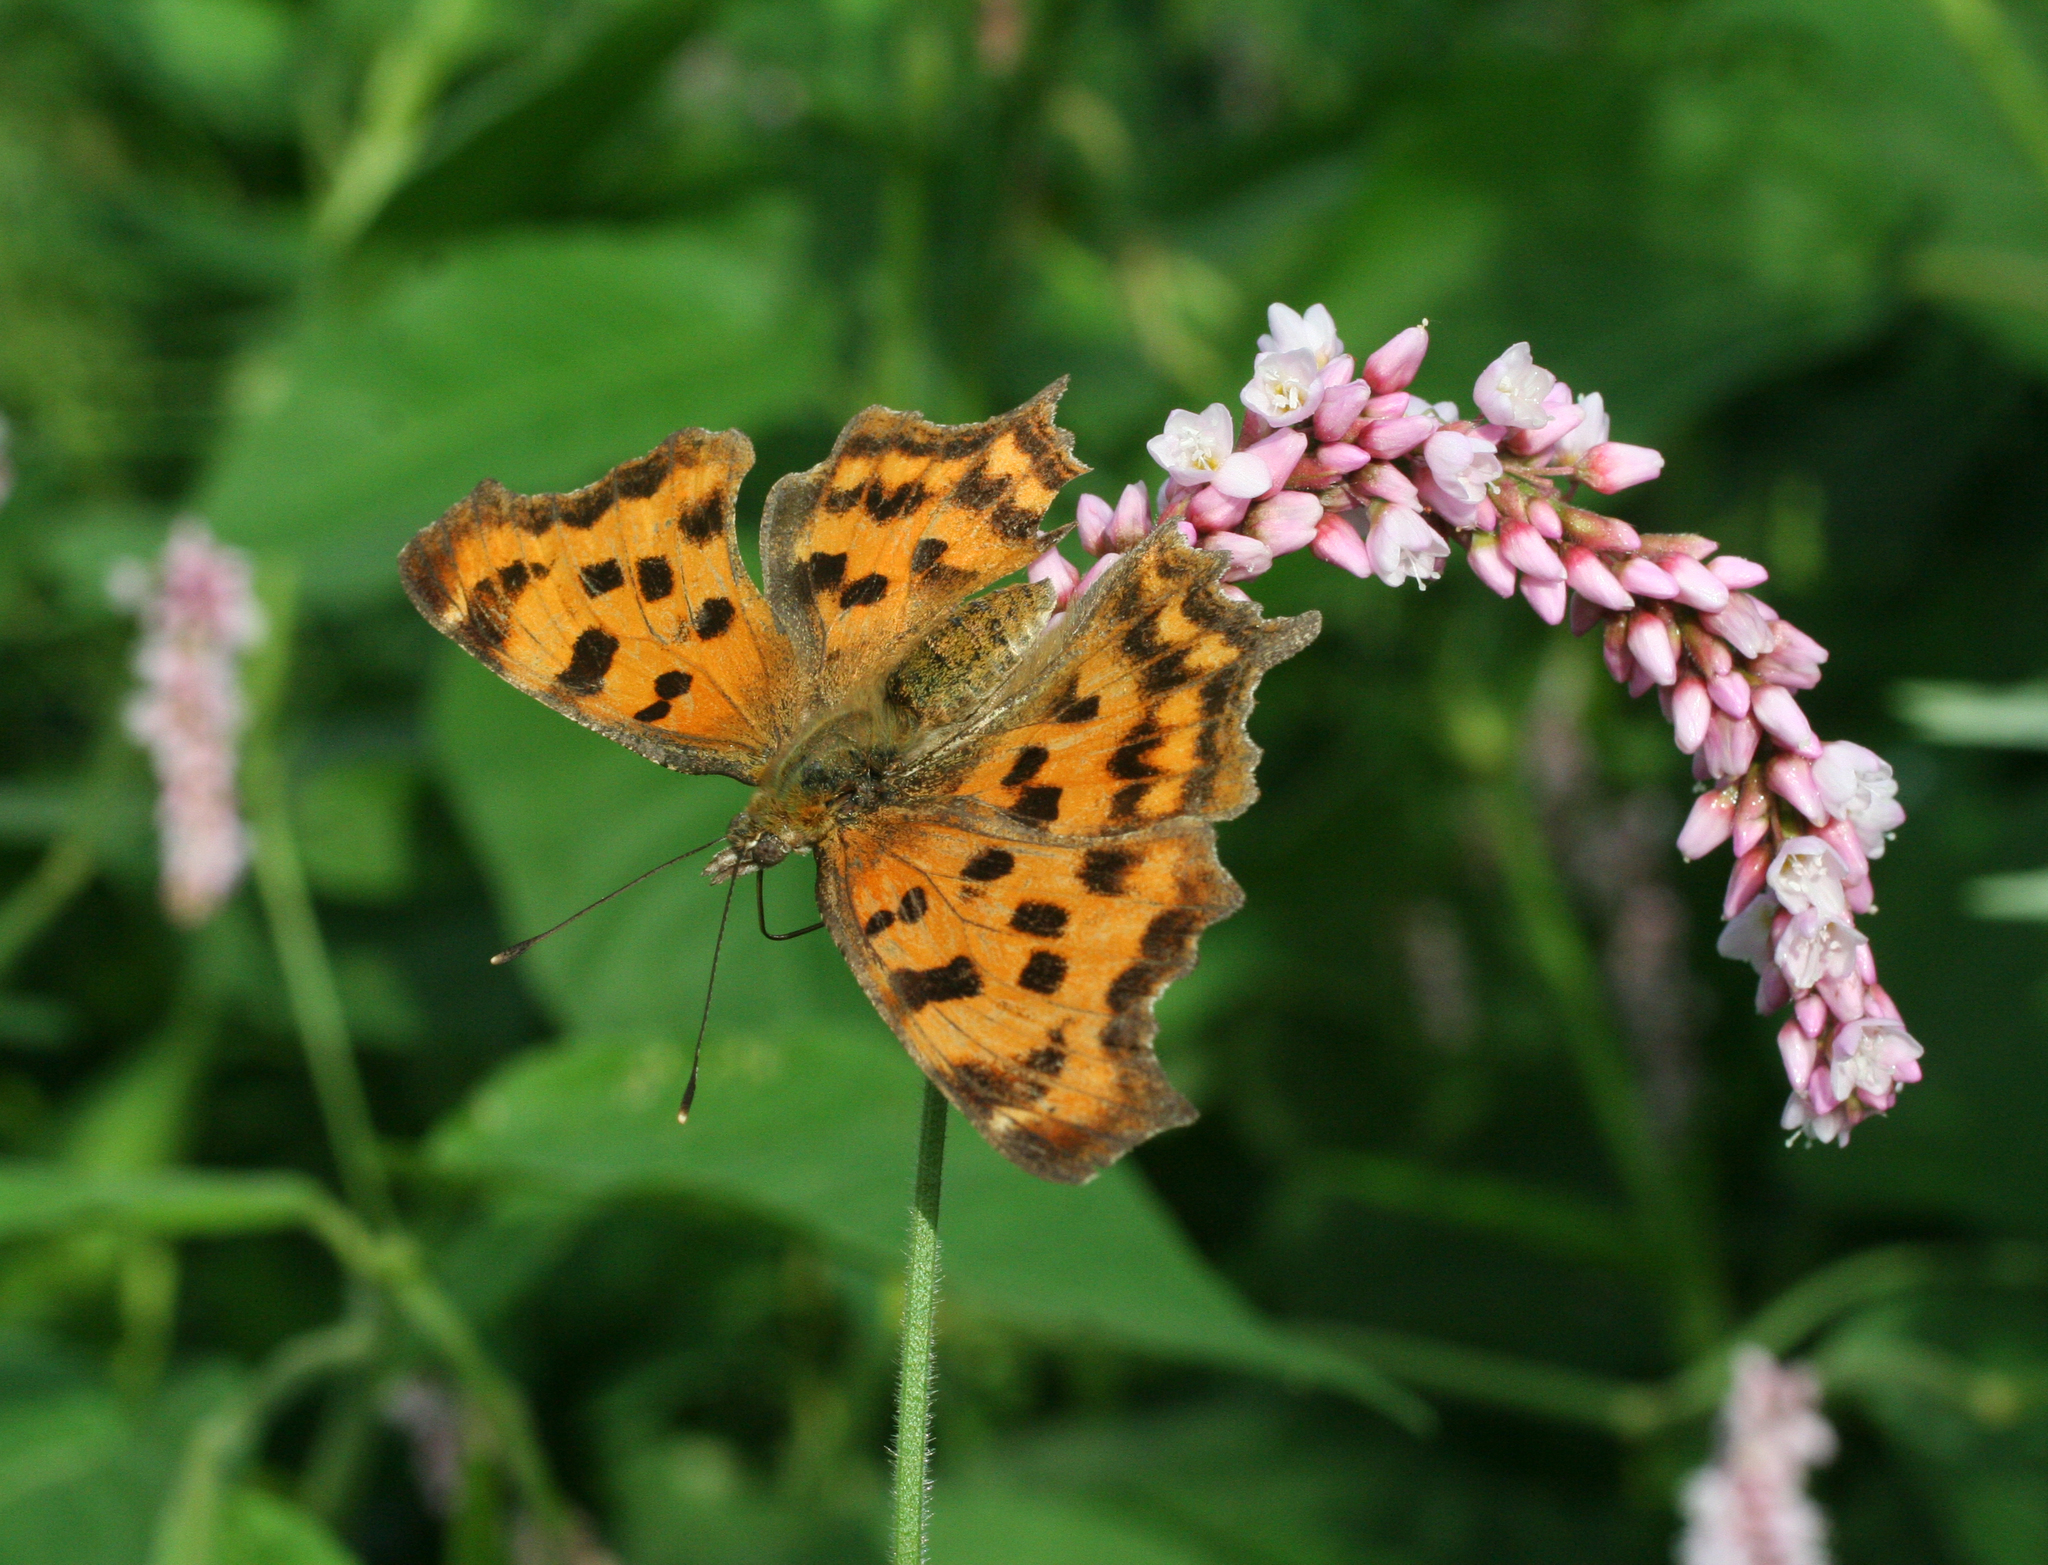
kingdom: Plantae
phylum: Tracheophyta
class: Magnoliopsida
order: Caryophyllales
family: Polygonaceae
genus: Persicaria
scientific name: Persicaria orientalis
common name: Kiss-me-over-the-garden-gate
